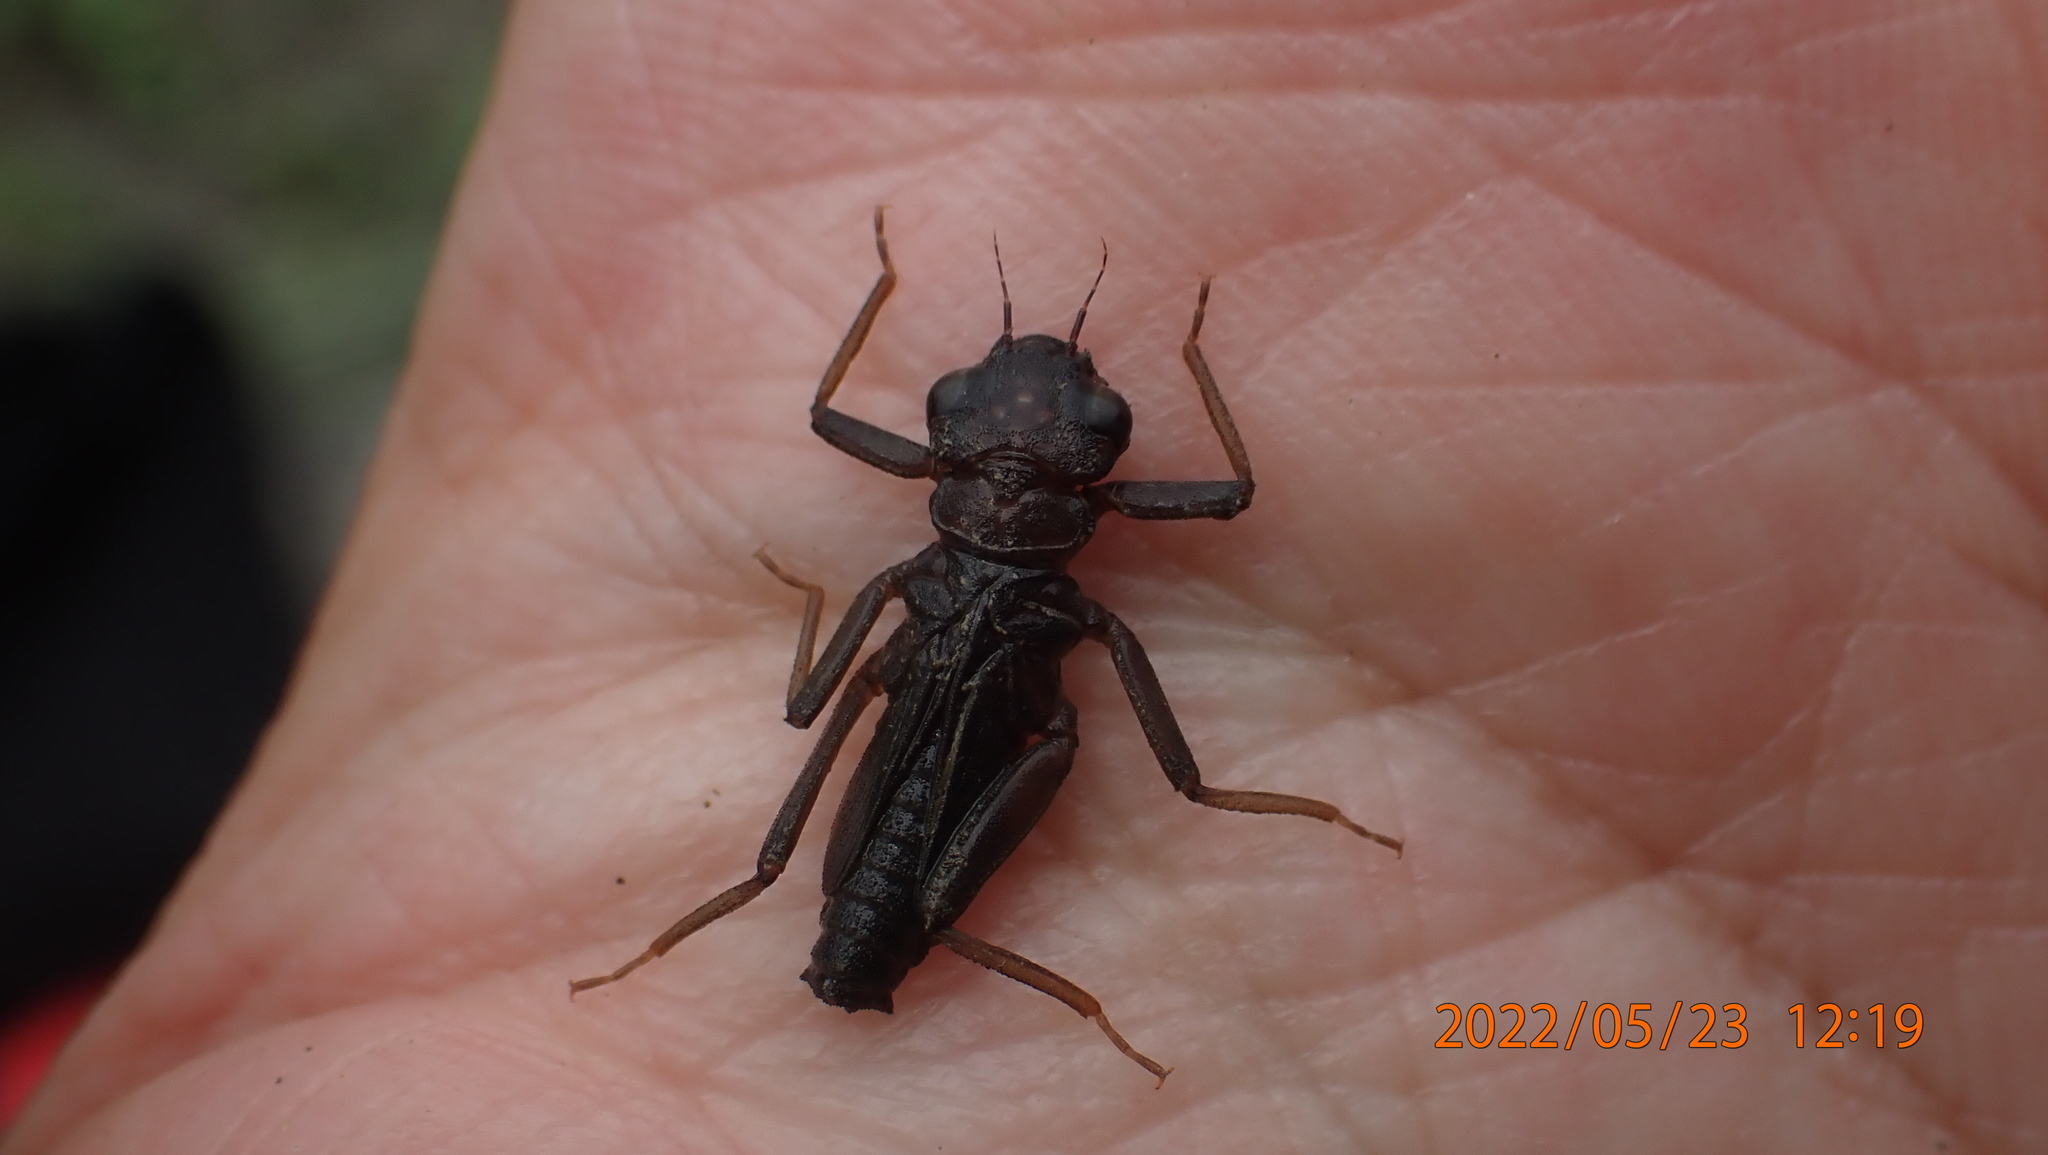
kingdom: Animalia
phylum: Arthropoda
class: Insecta
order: Odonata
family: Euphaeidae
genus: Euphaea
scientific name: Euphaea formosa
